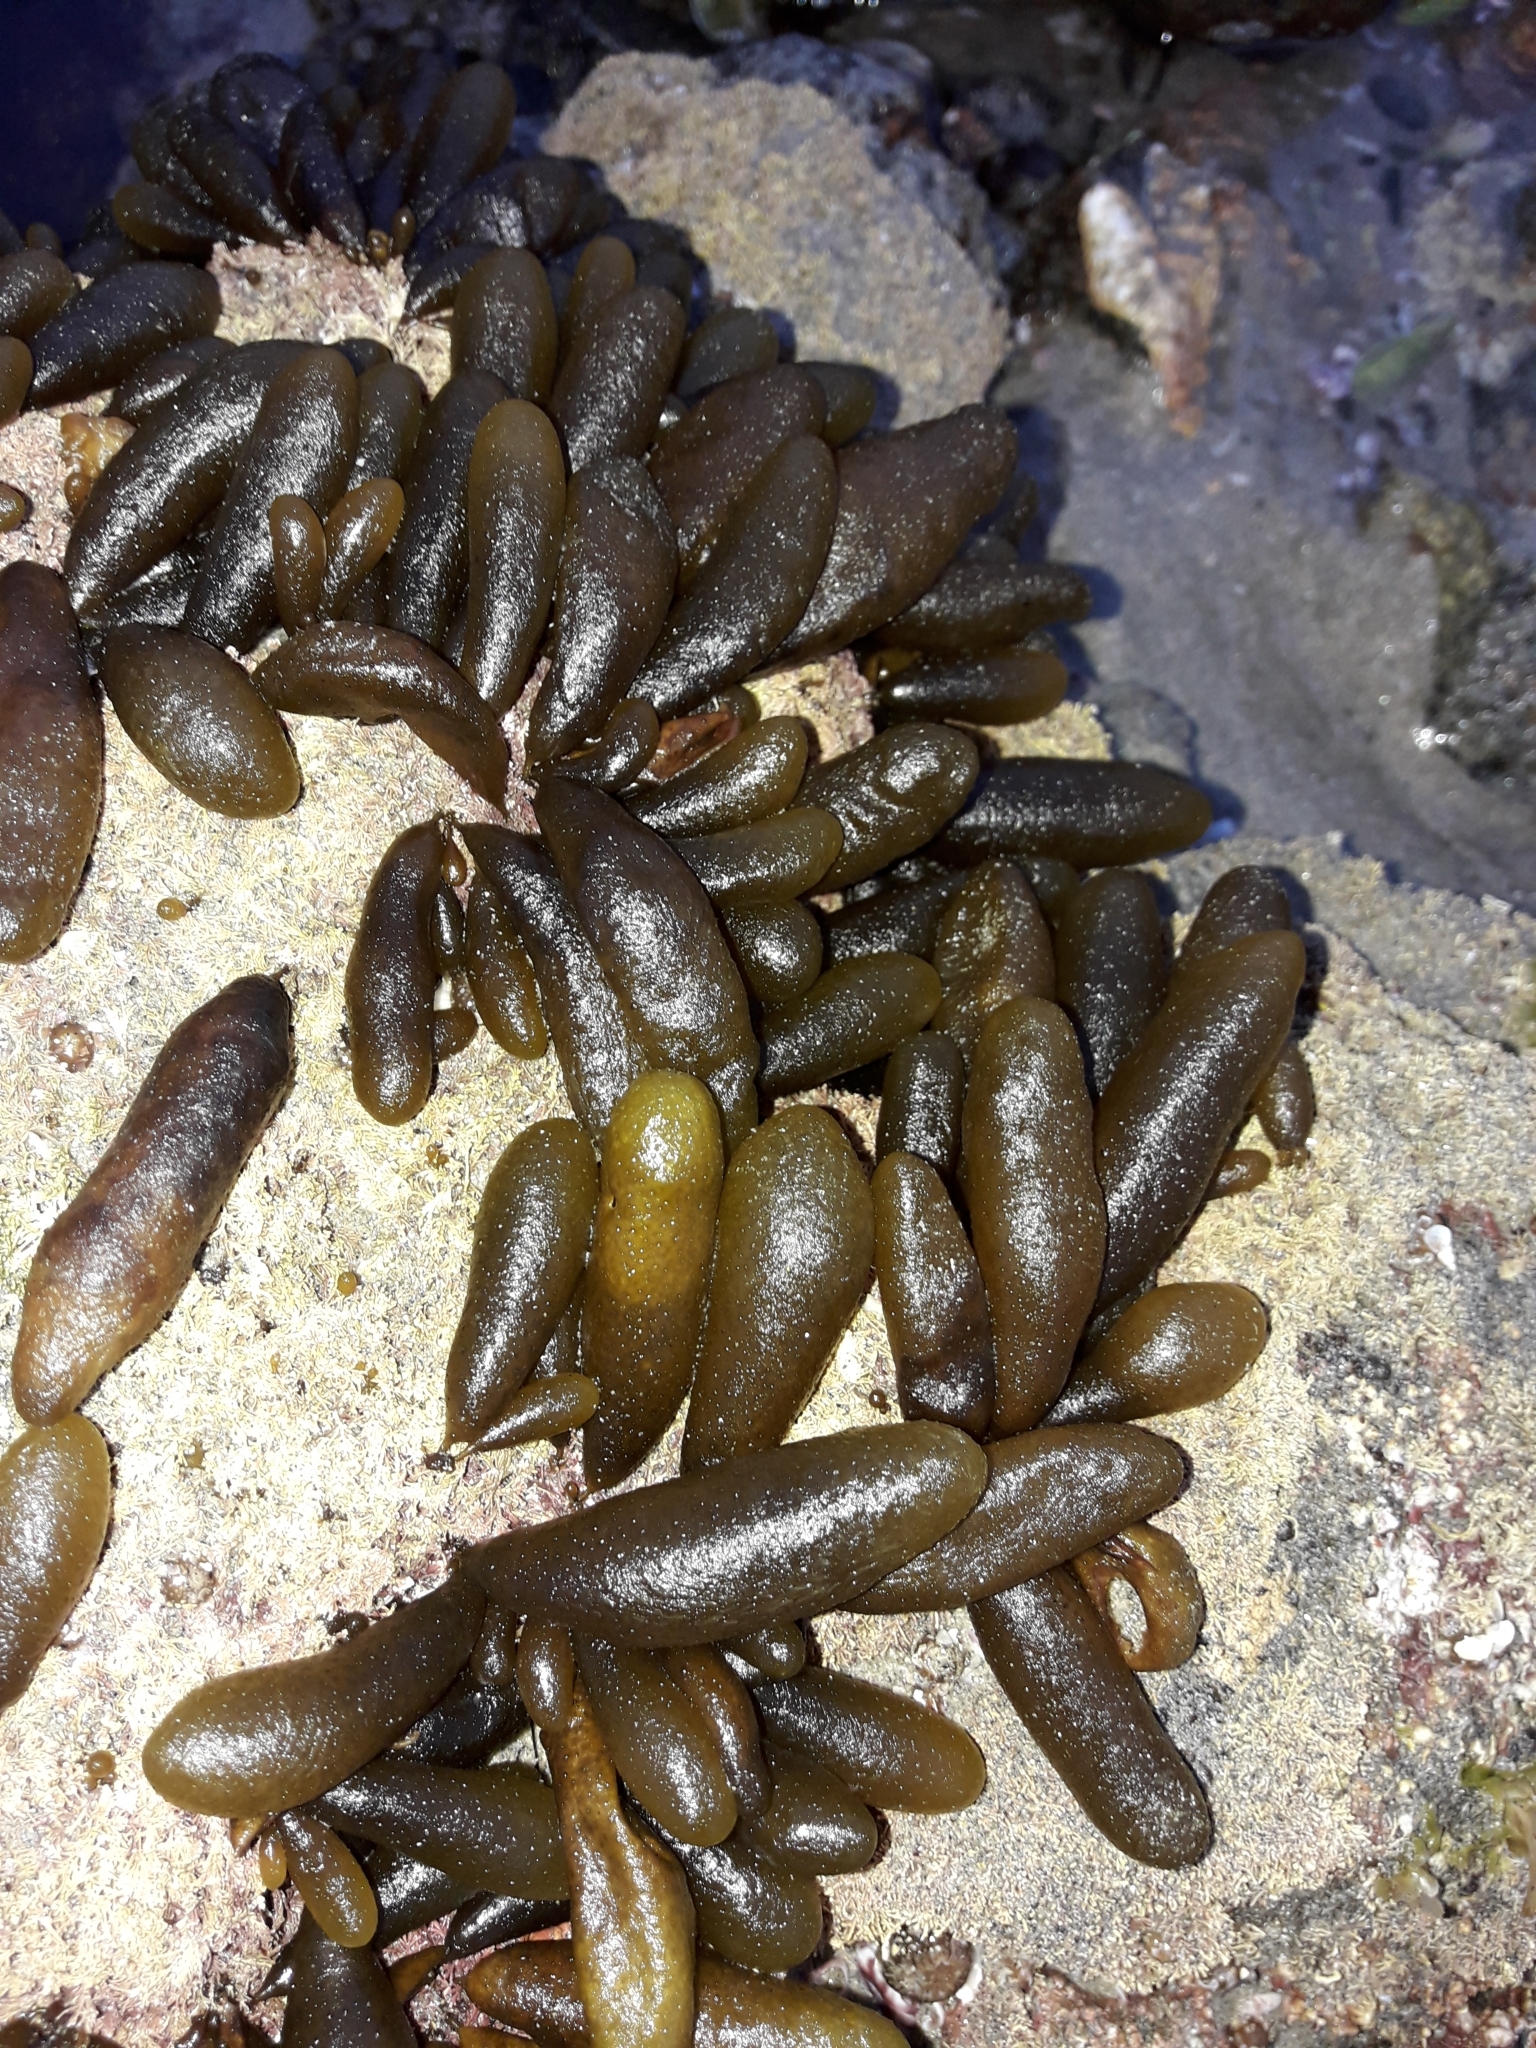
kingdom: Chromista
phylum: Ochrophyta
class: Phaeophyceae
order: Ectocarpales
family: Adenocystaceae
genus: Adenocystis
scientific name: Adenocystis utricularis
